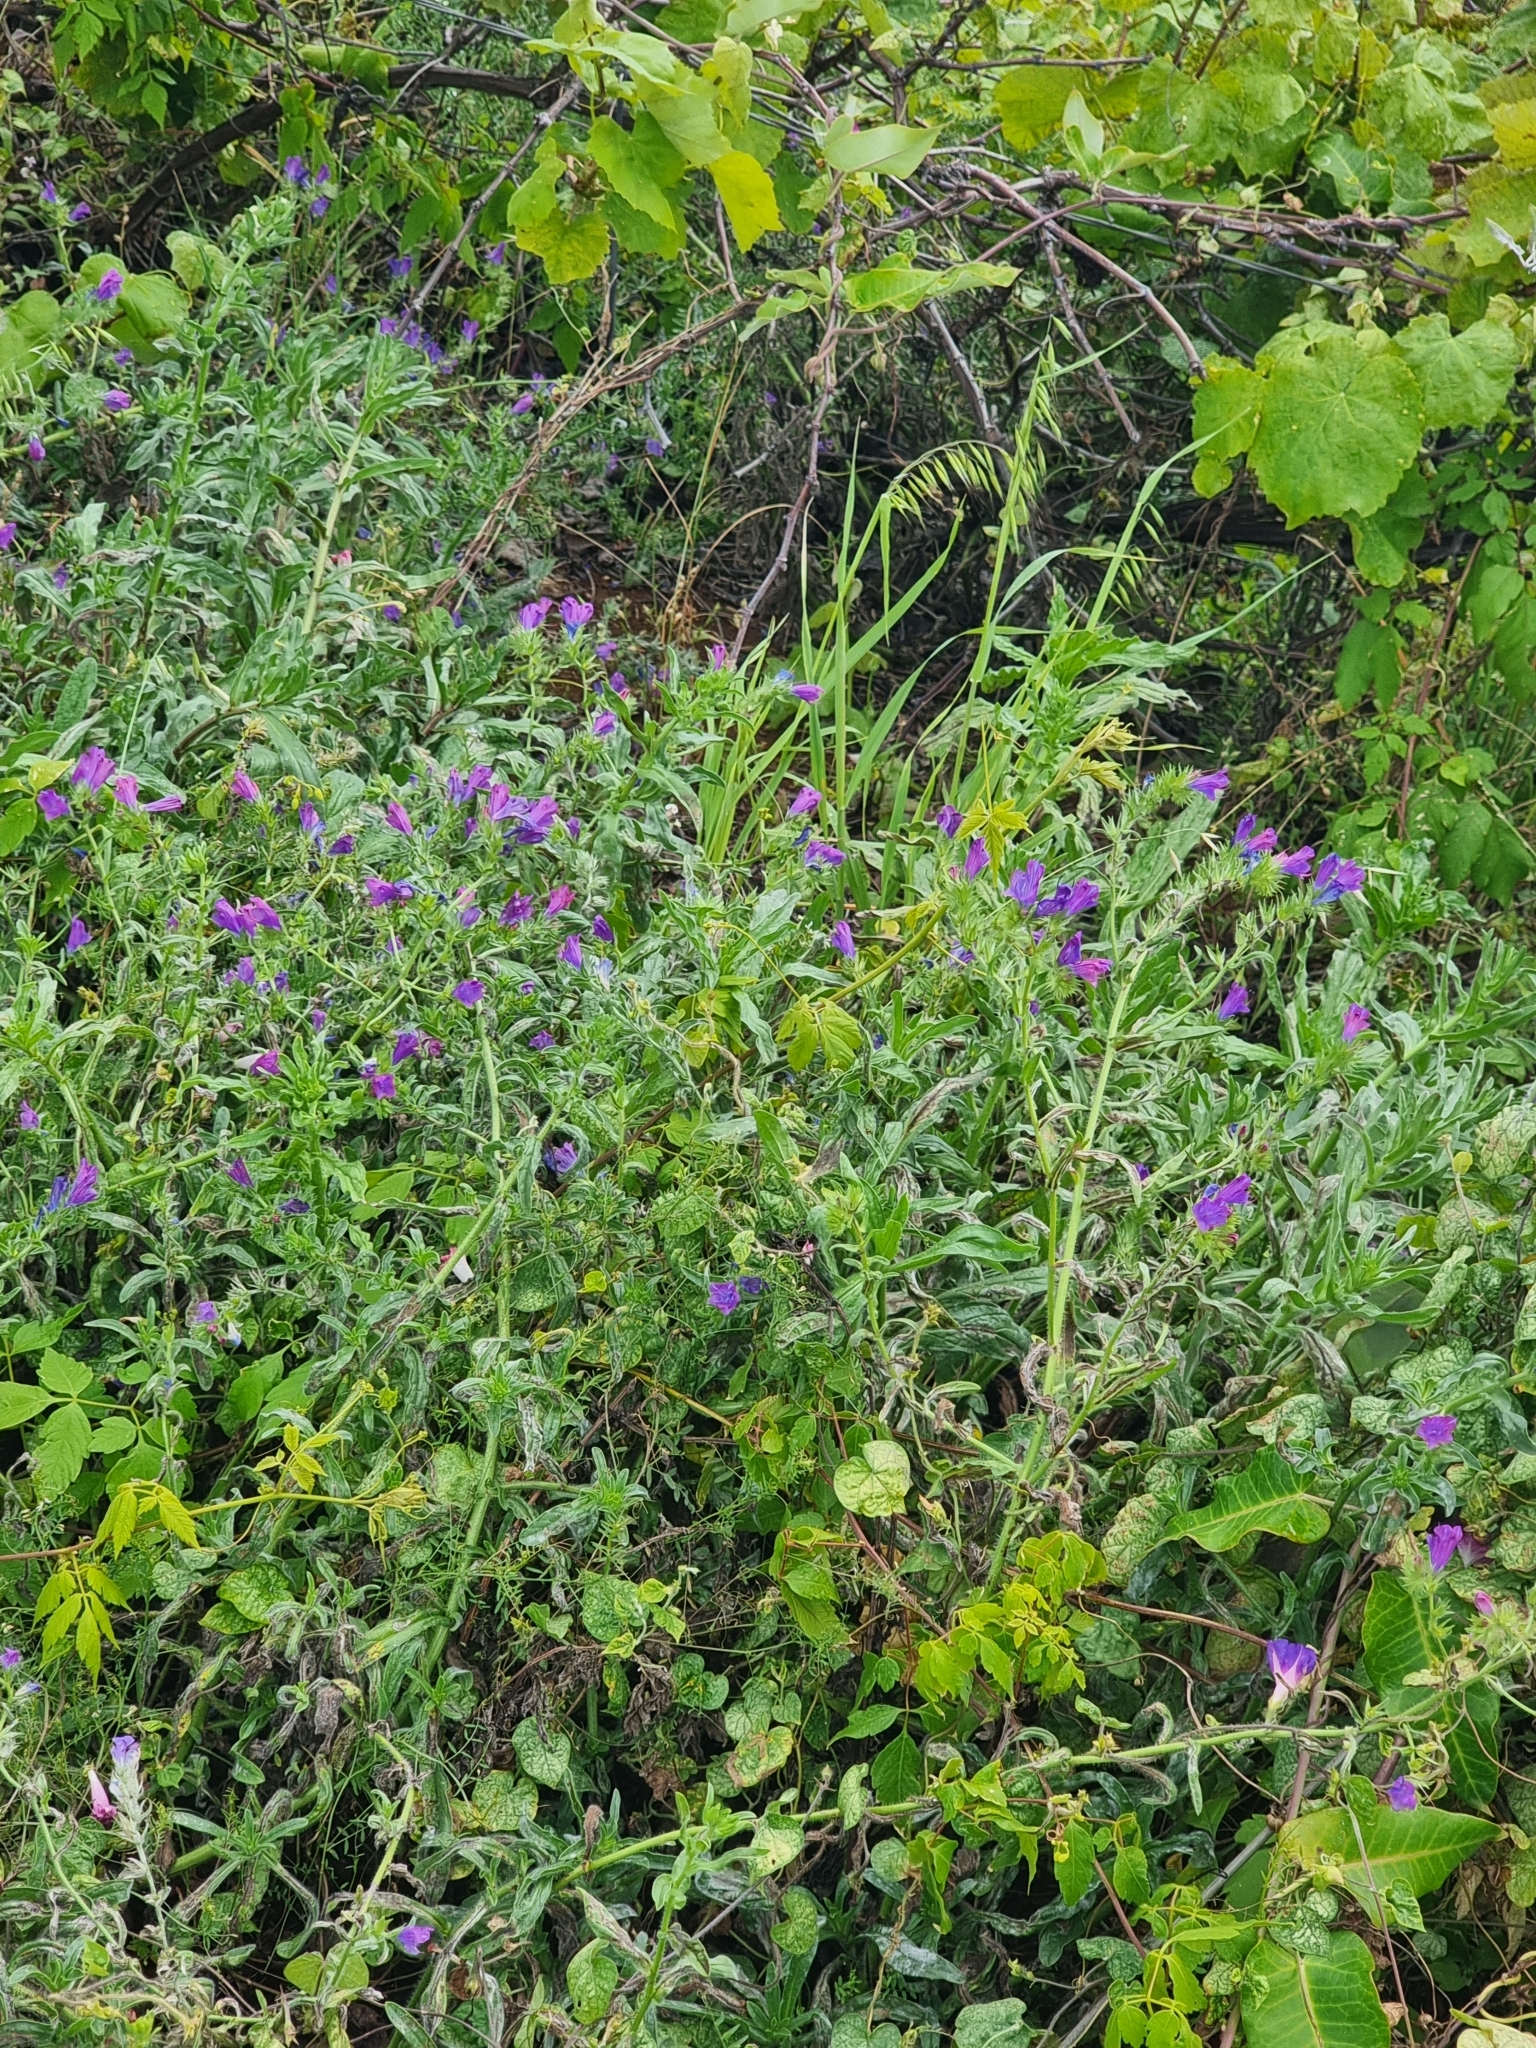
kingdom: Plantae
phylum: Tracheophyta
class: Magnoliopsida
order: Boraginales
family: Boraginaceae
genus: Echium
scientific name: Echium plantagineum
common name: Purple viper's-bugloss
